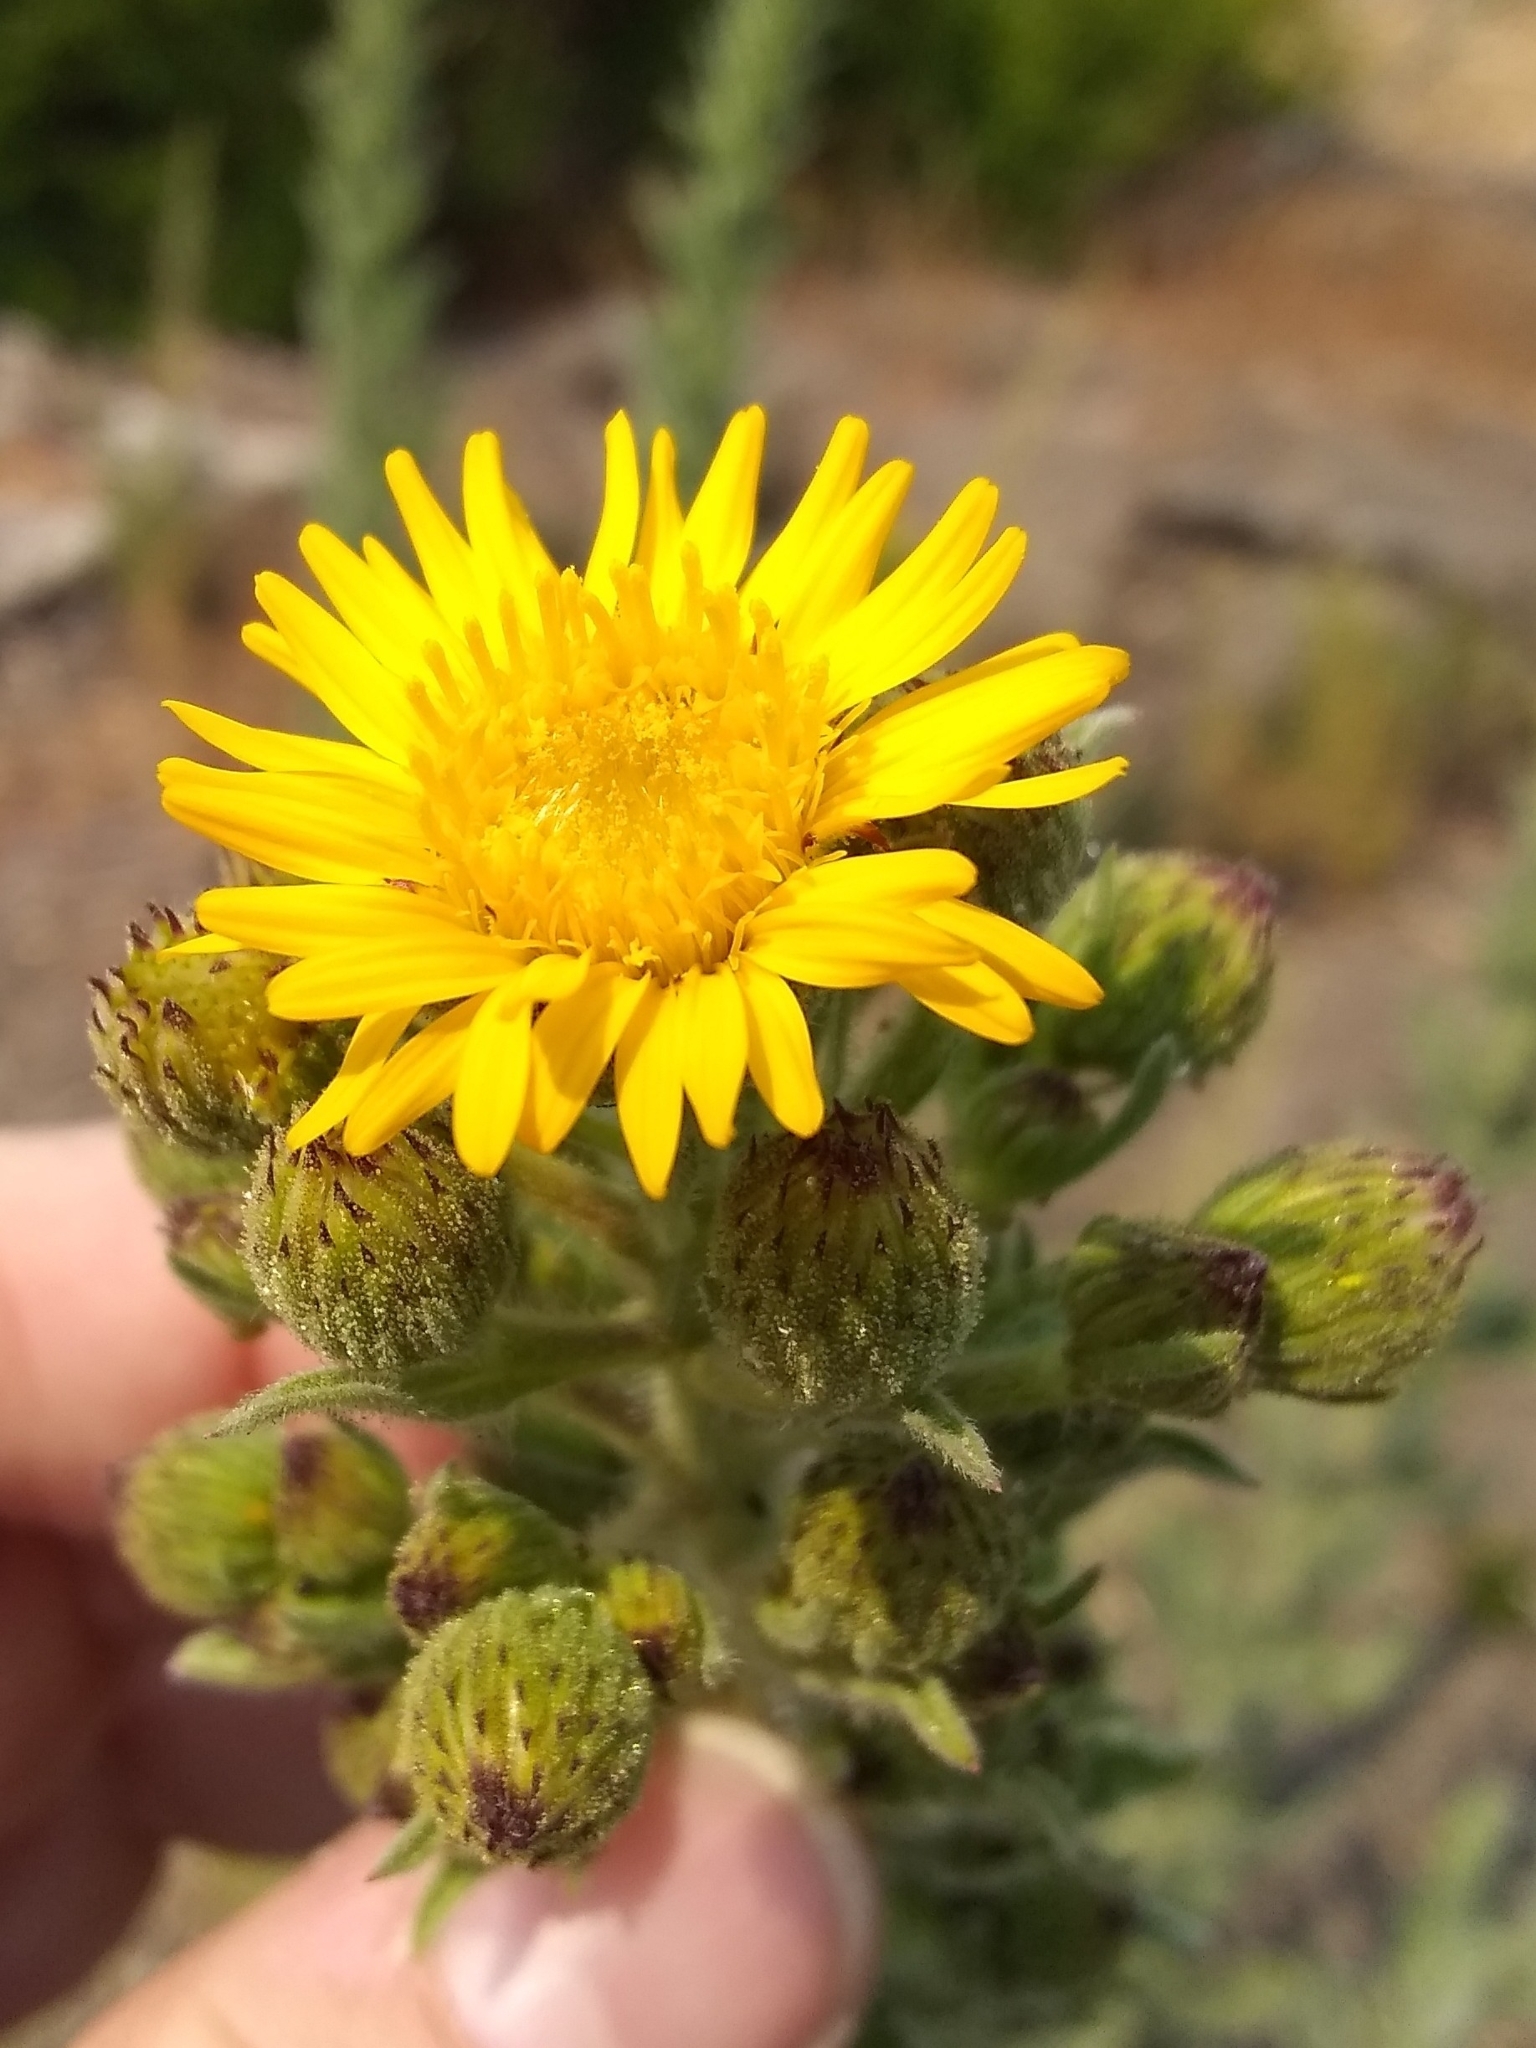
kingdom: Plantae
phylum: Tracheophyta
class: Magnoliopsida
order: Asterales
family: Asteraceae
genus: Heterotheca
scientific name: Heterotheca grandiflora
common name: Telegraphweed
